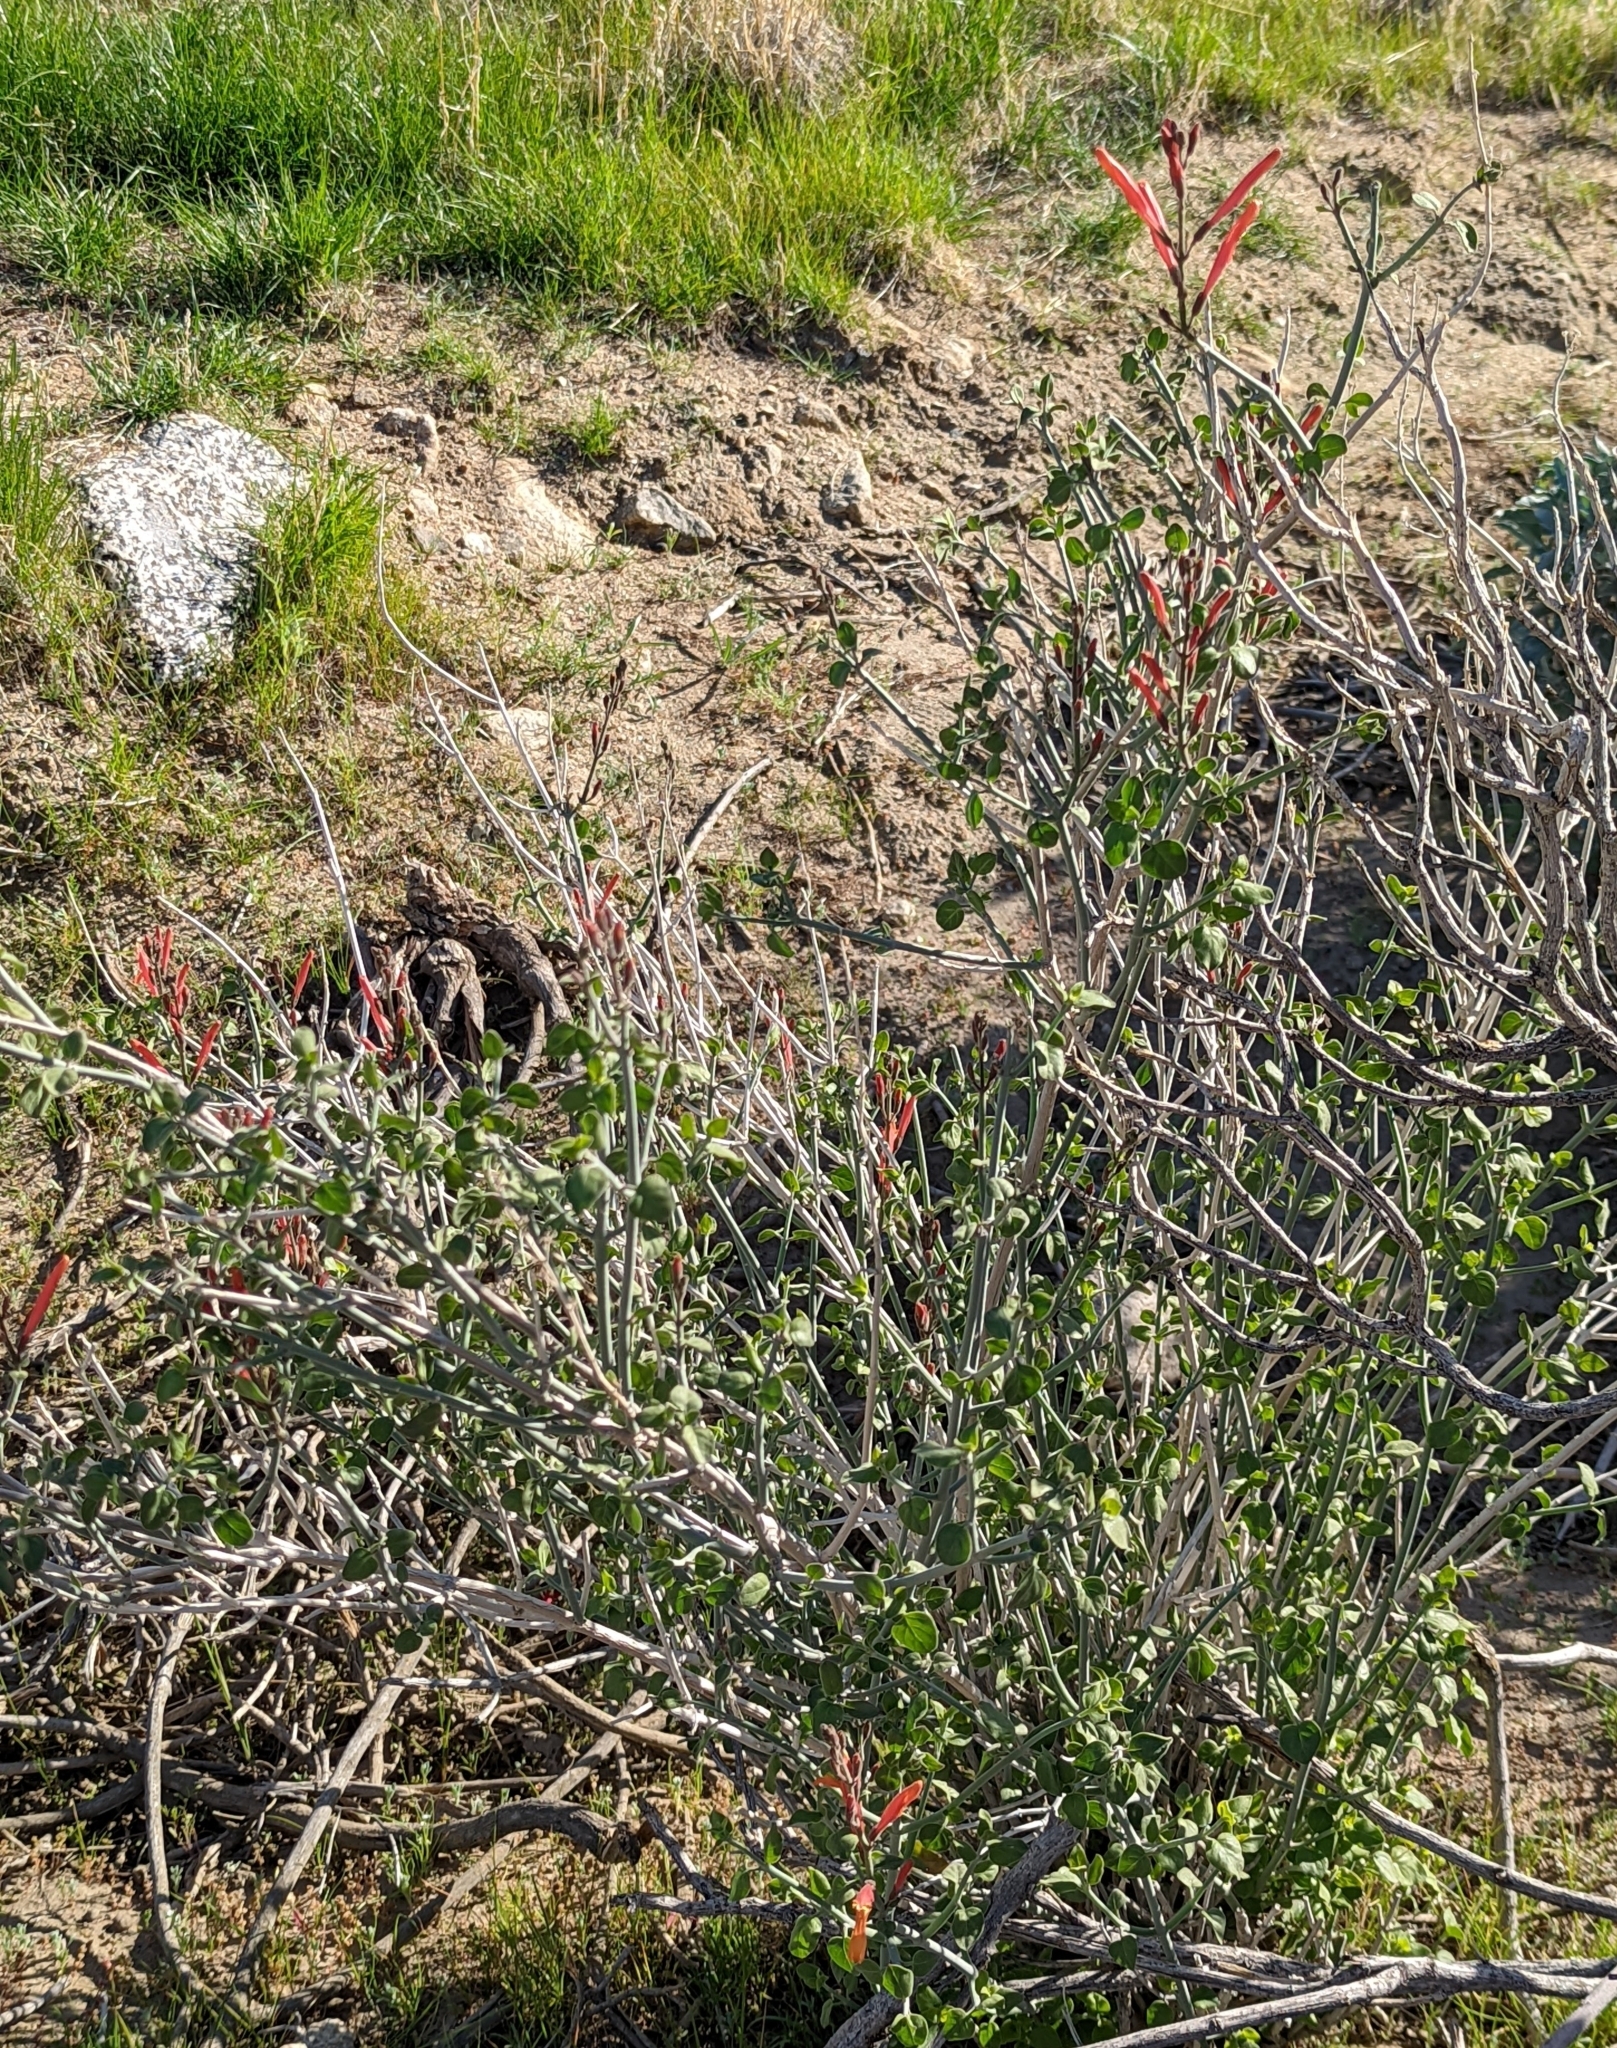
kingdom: Plantae
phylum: Tracheophyta
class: Magnoliopsida
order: Lamiales
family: Acanthaceae
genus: Justicia
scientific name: Justicia californica
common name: Chuparosa-honeysuckle
